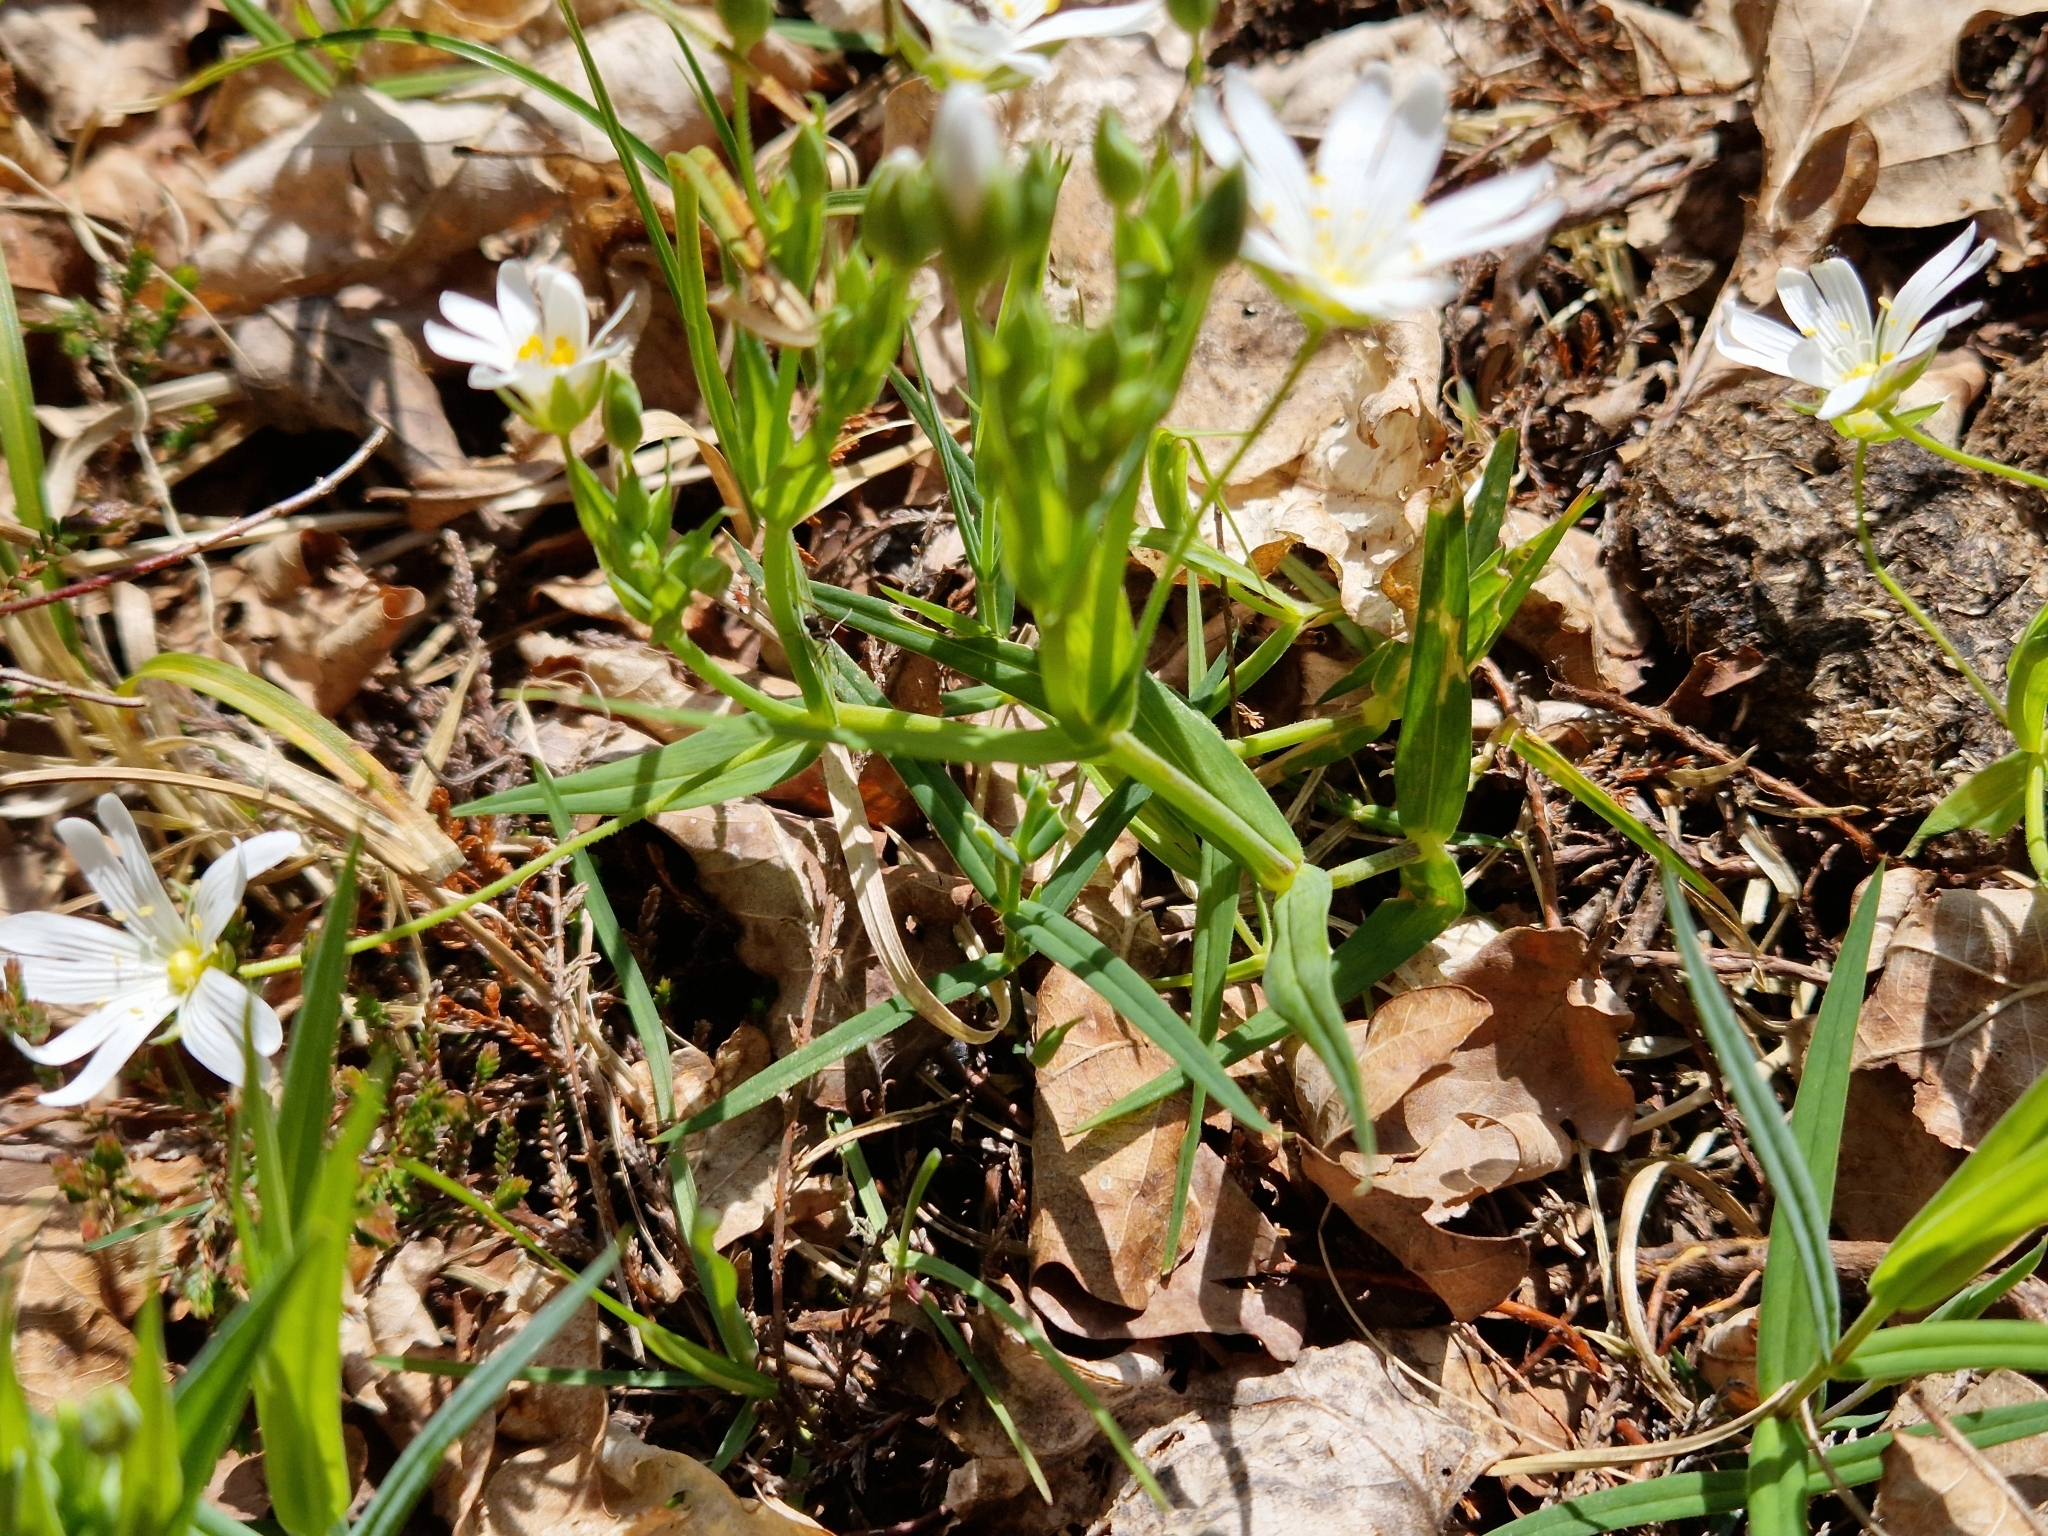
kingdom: Plantae
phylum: Tracheophyta
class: Magnoliopsida
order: Caryophyllales
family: Caryophyllaceae
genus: Rabelera
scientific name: Rabelera holostea
